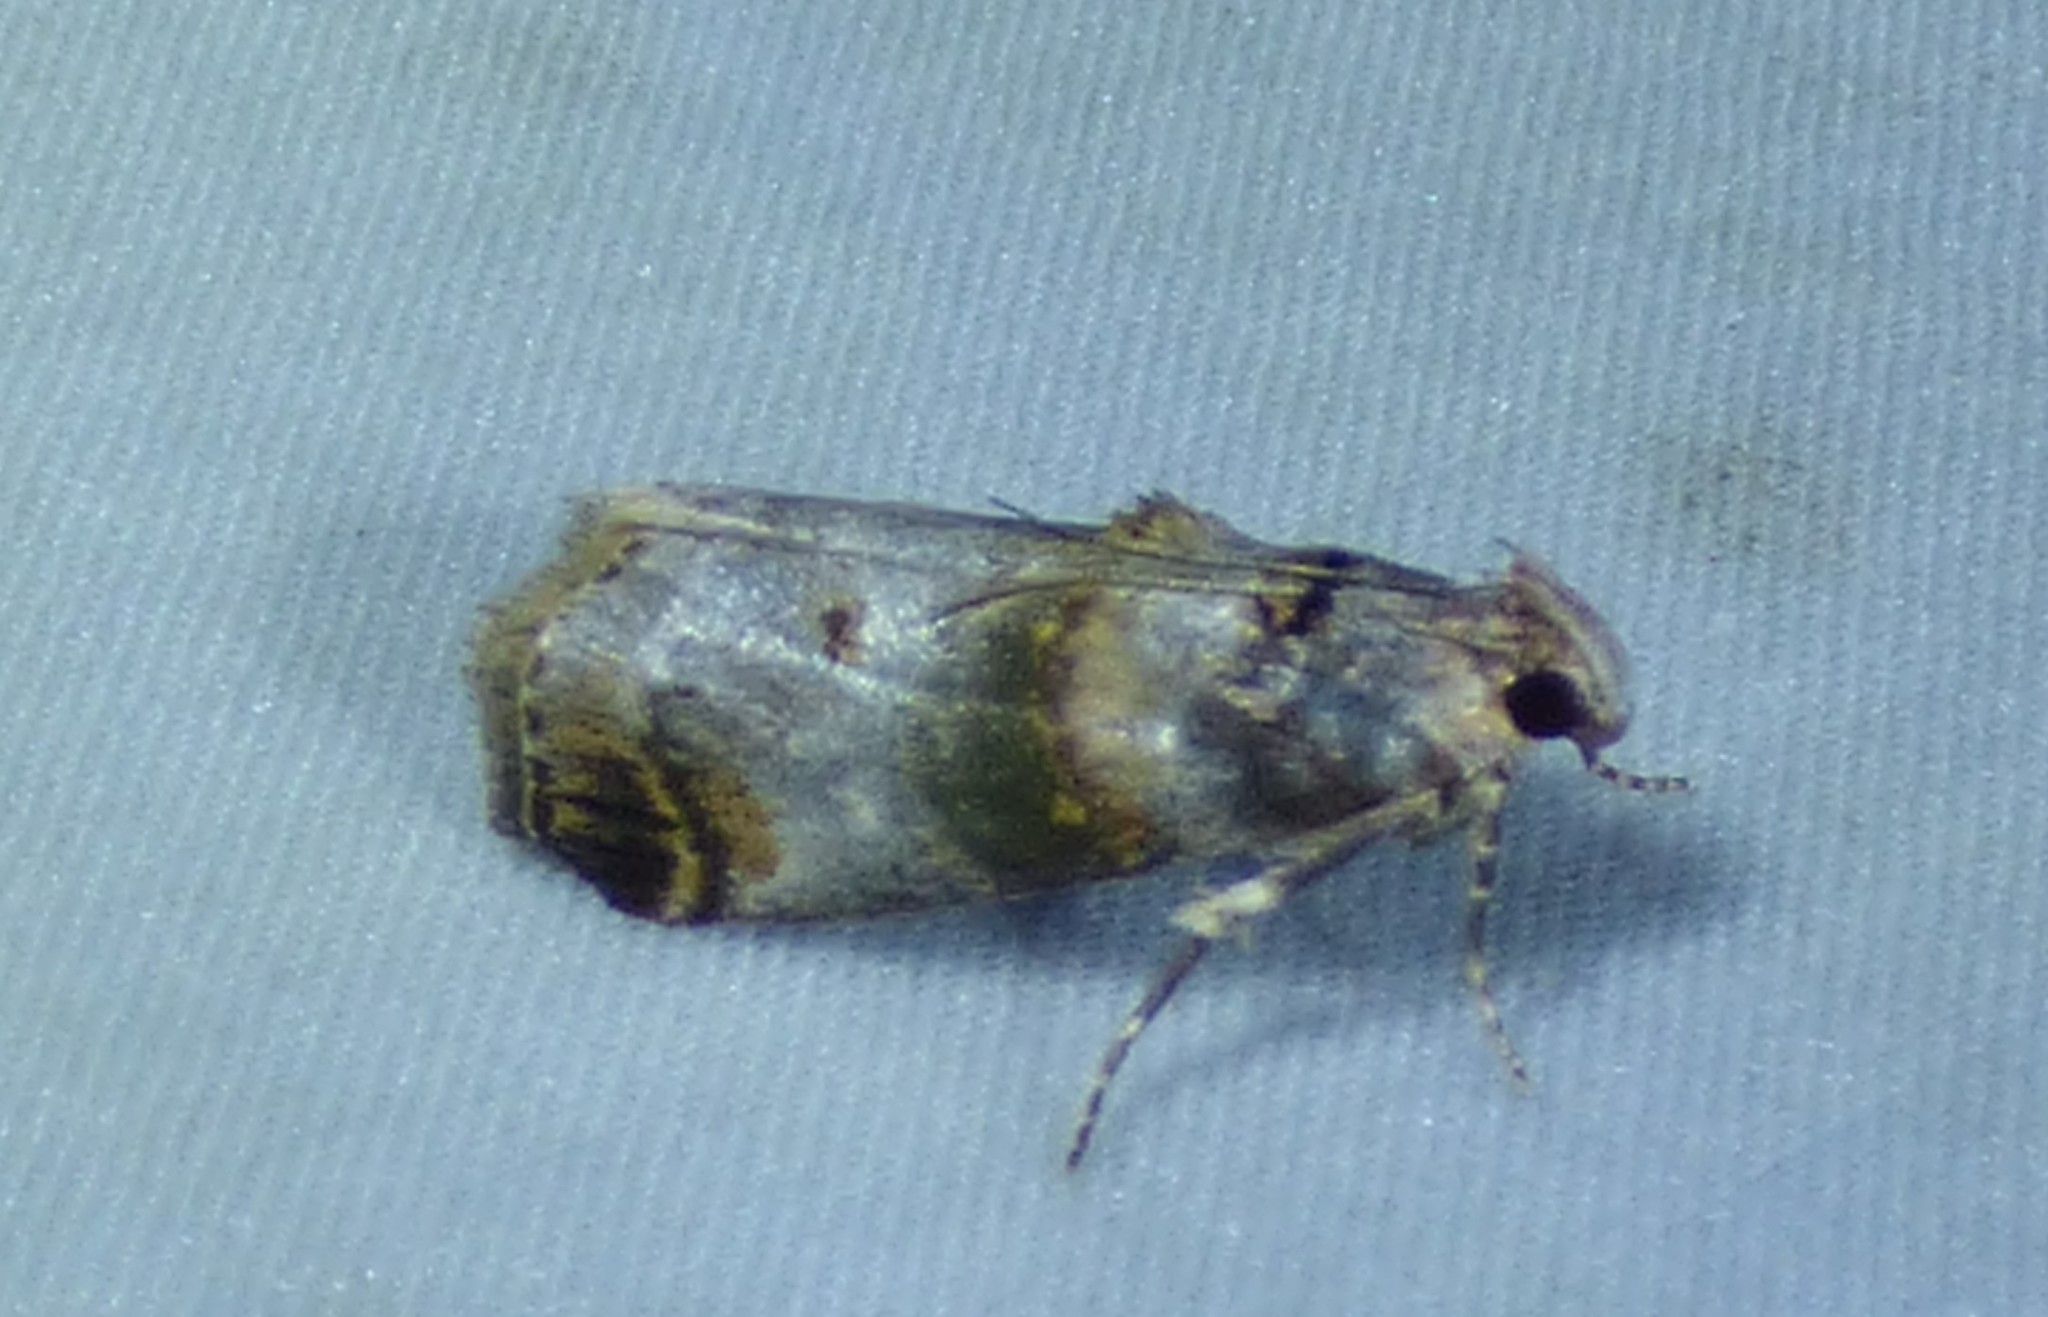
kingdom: Animalia
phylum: Arthropoda
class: Insecta
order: Lepidoptera
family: Pyralidae
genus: Oneida
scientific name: Oneida lunulalis
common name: Orange-tufted oneida moth
